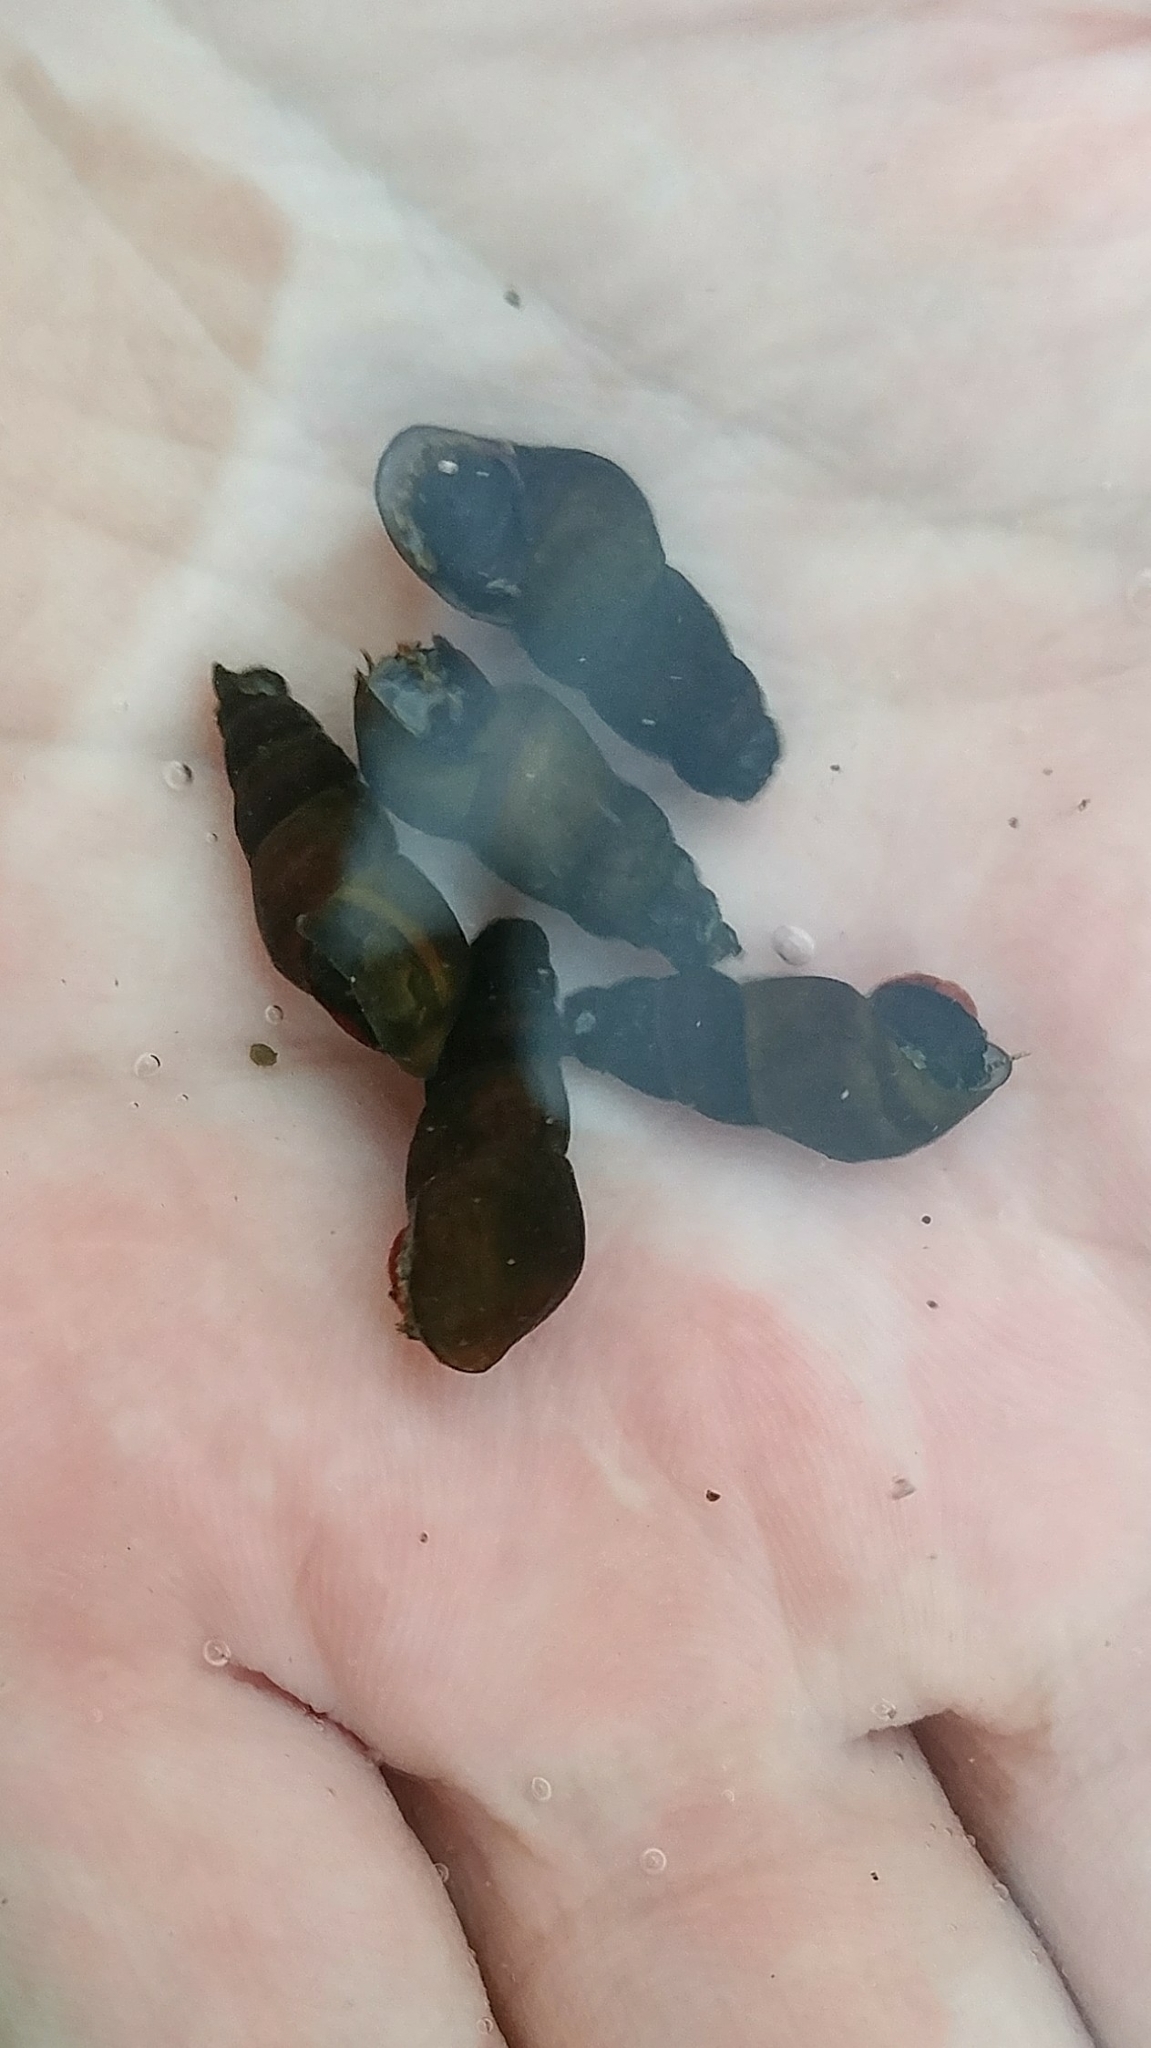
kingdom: Animalia
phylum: Mollusca
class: Gastropoda
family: Semisulcospiridae
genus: Juga
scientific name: Juga plicifera
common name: Pleated juga
